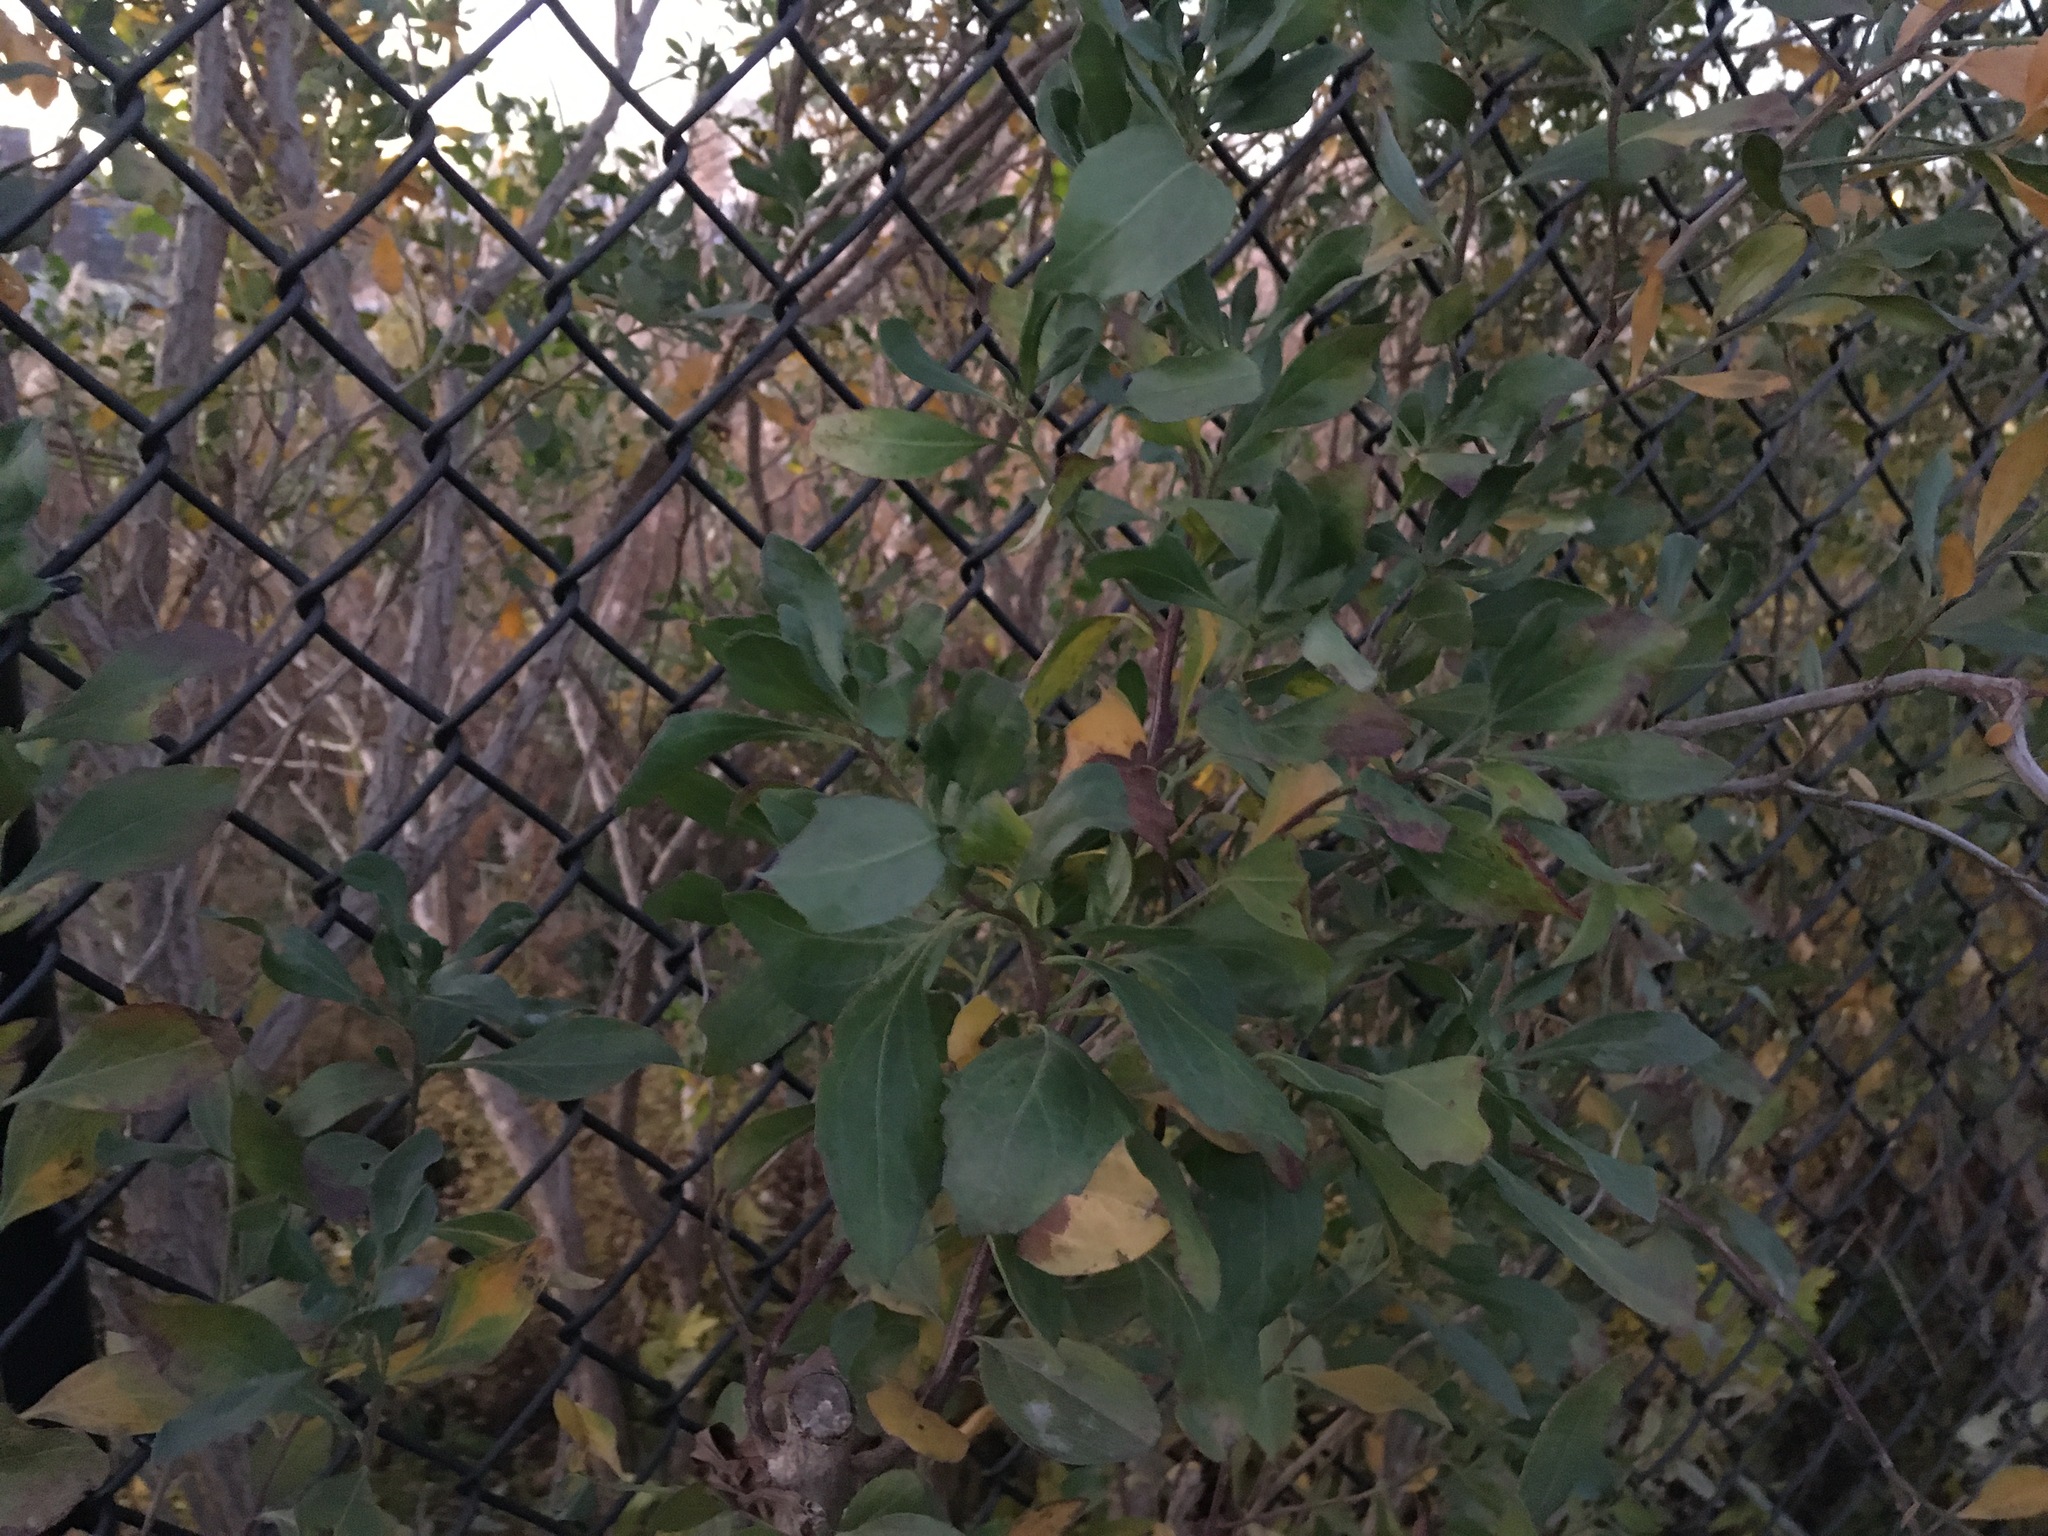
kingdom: Plantae
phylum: Tracheophyta
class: Magnoliopsida
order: Asterales
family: Asteraceae
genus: Baccharis
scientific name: Baccharis halimifolia
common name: Eastern baccharis
